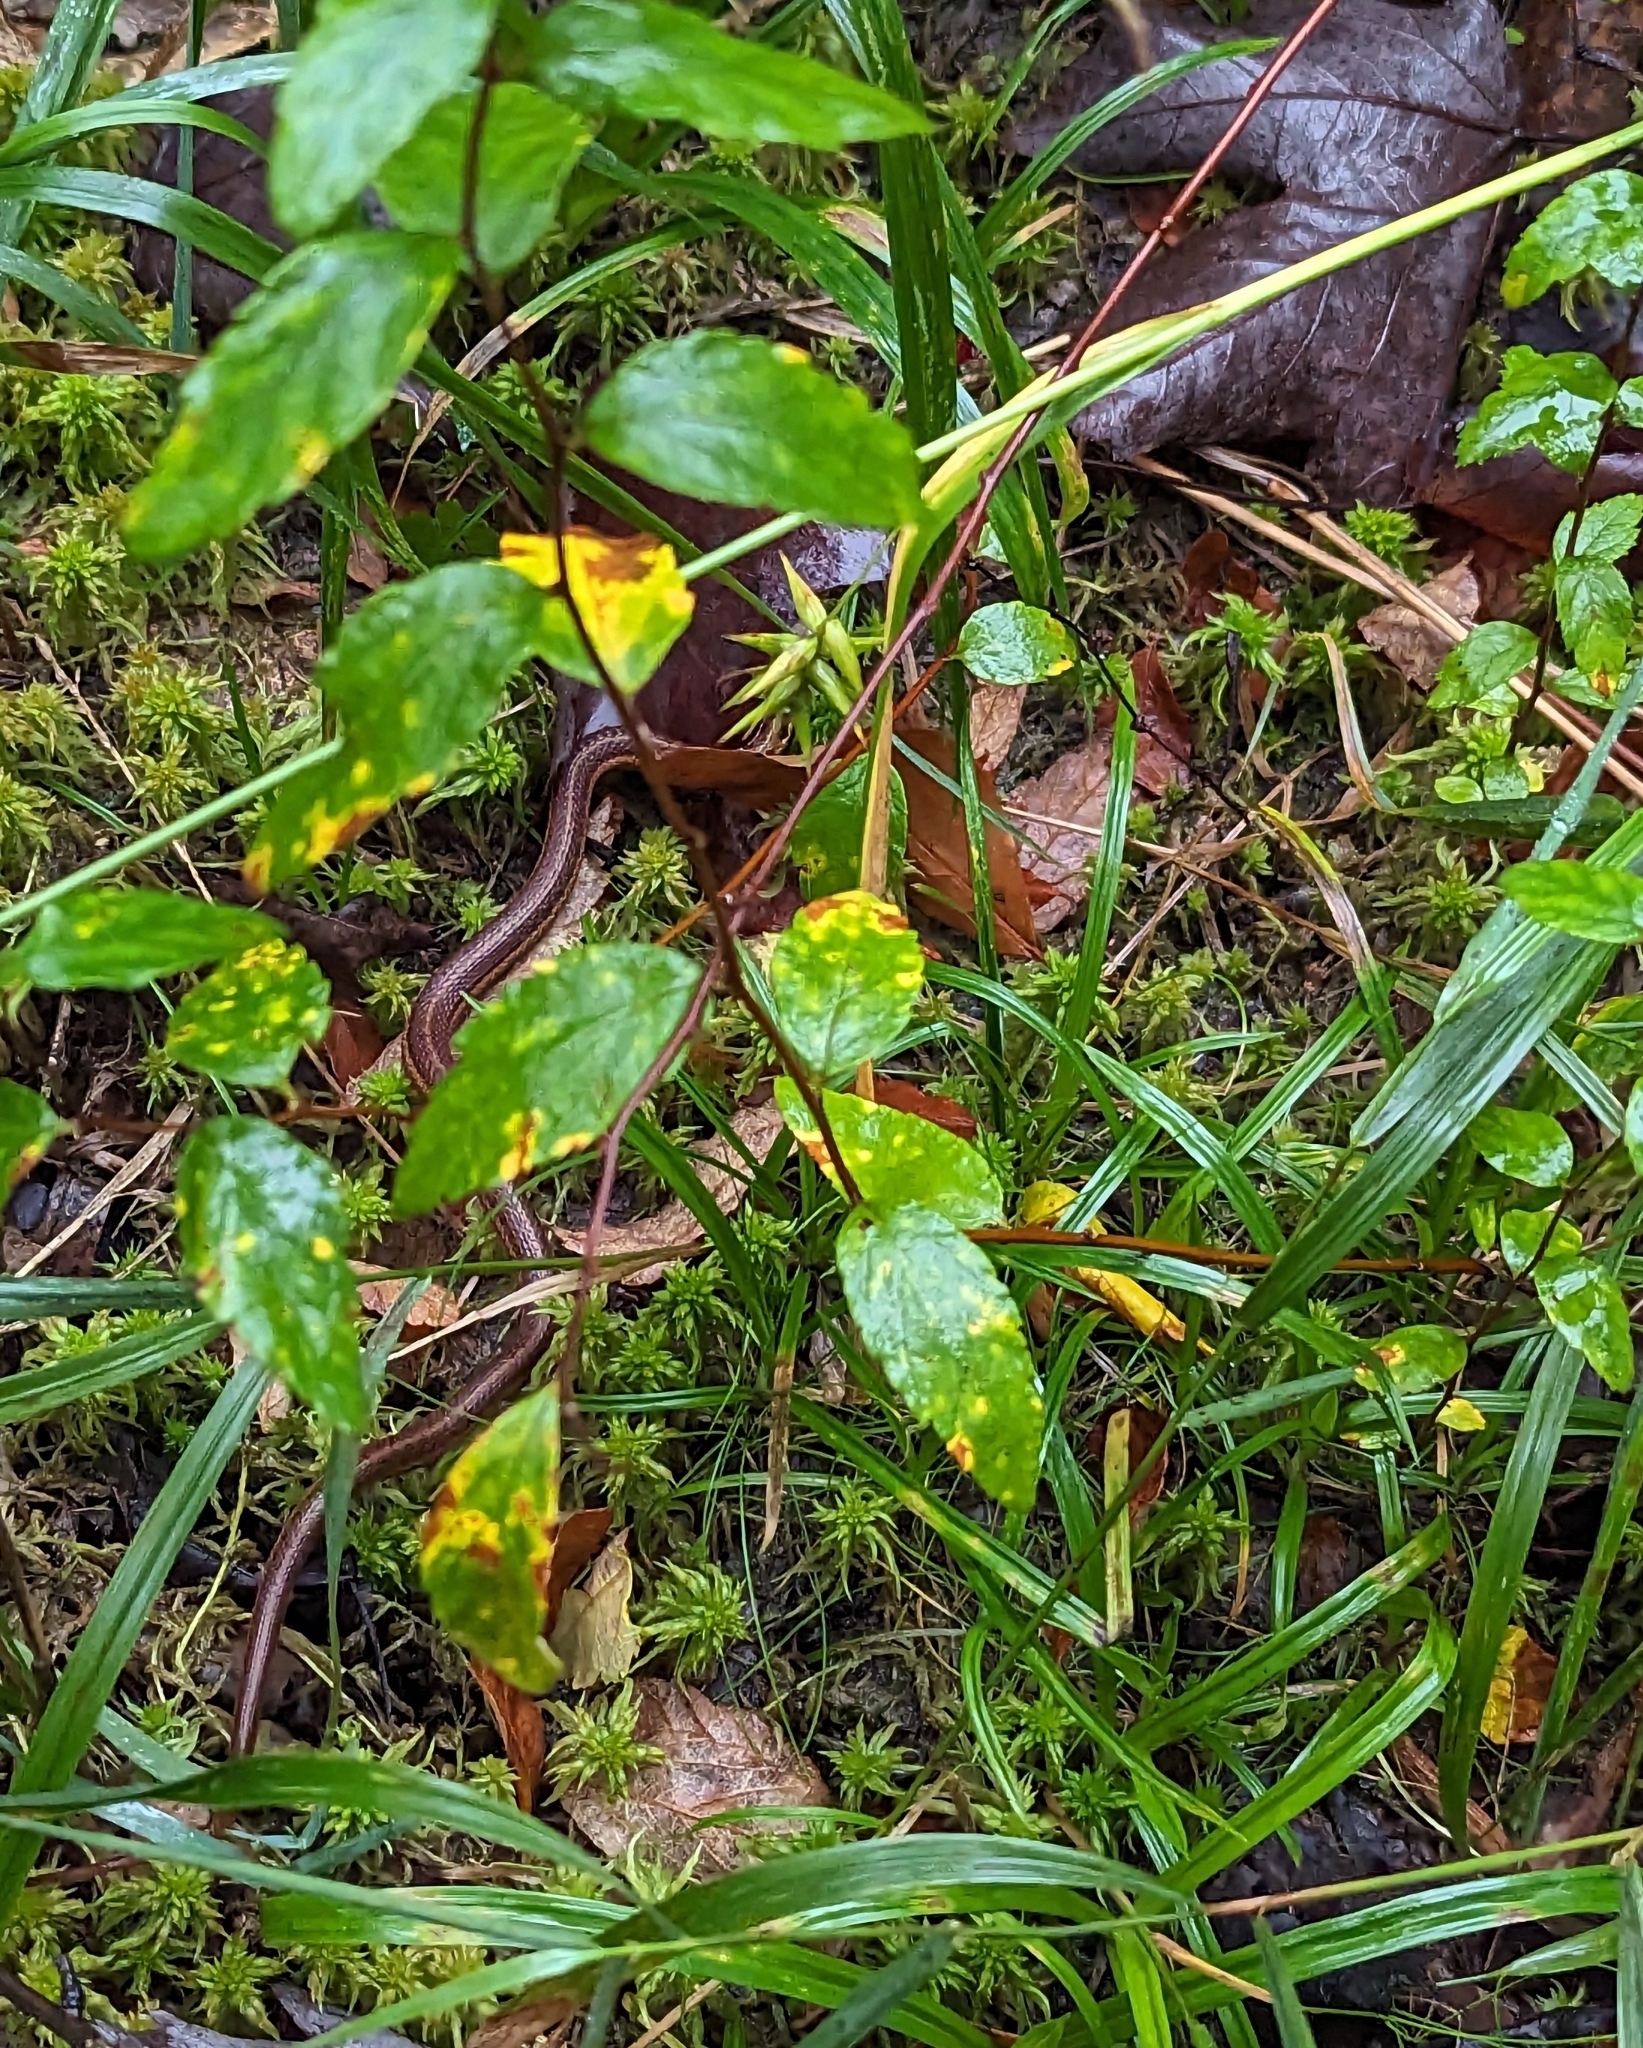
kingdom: Animalia
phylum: Chordata
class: Squamata
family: Colubridae
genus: Thamnophis
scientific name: Thamnophis sirtalis
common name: Common garter snake
